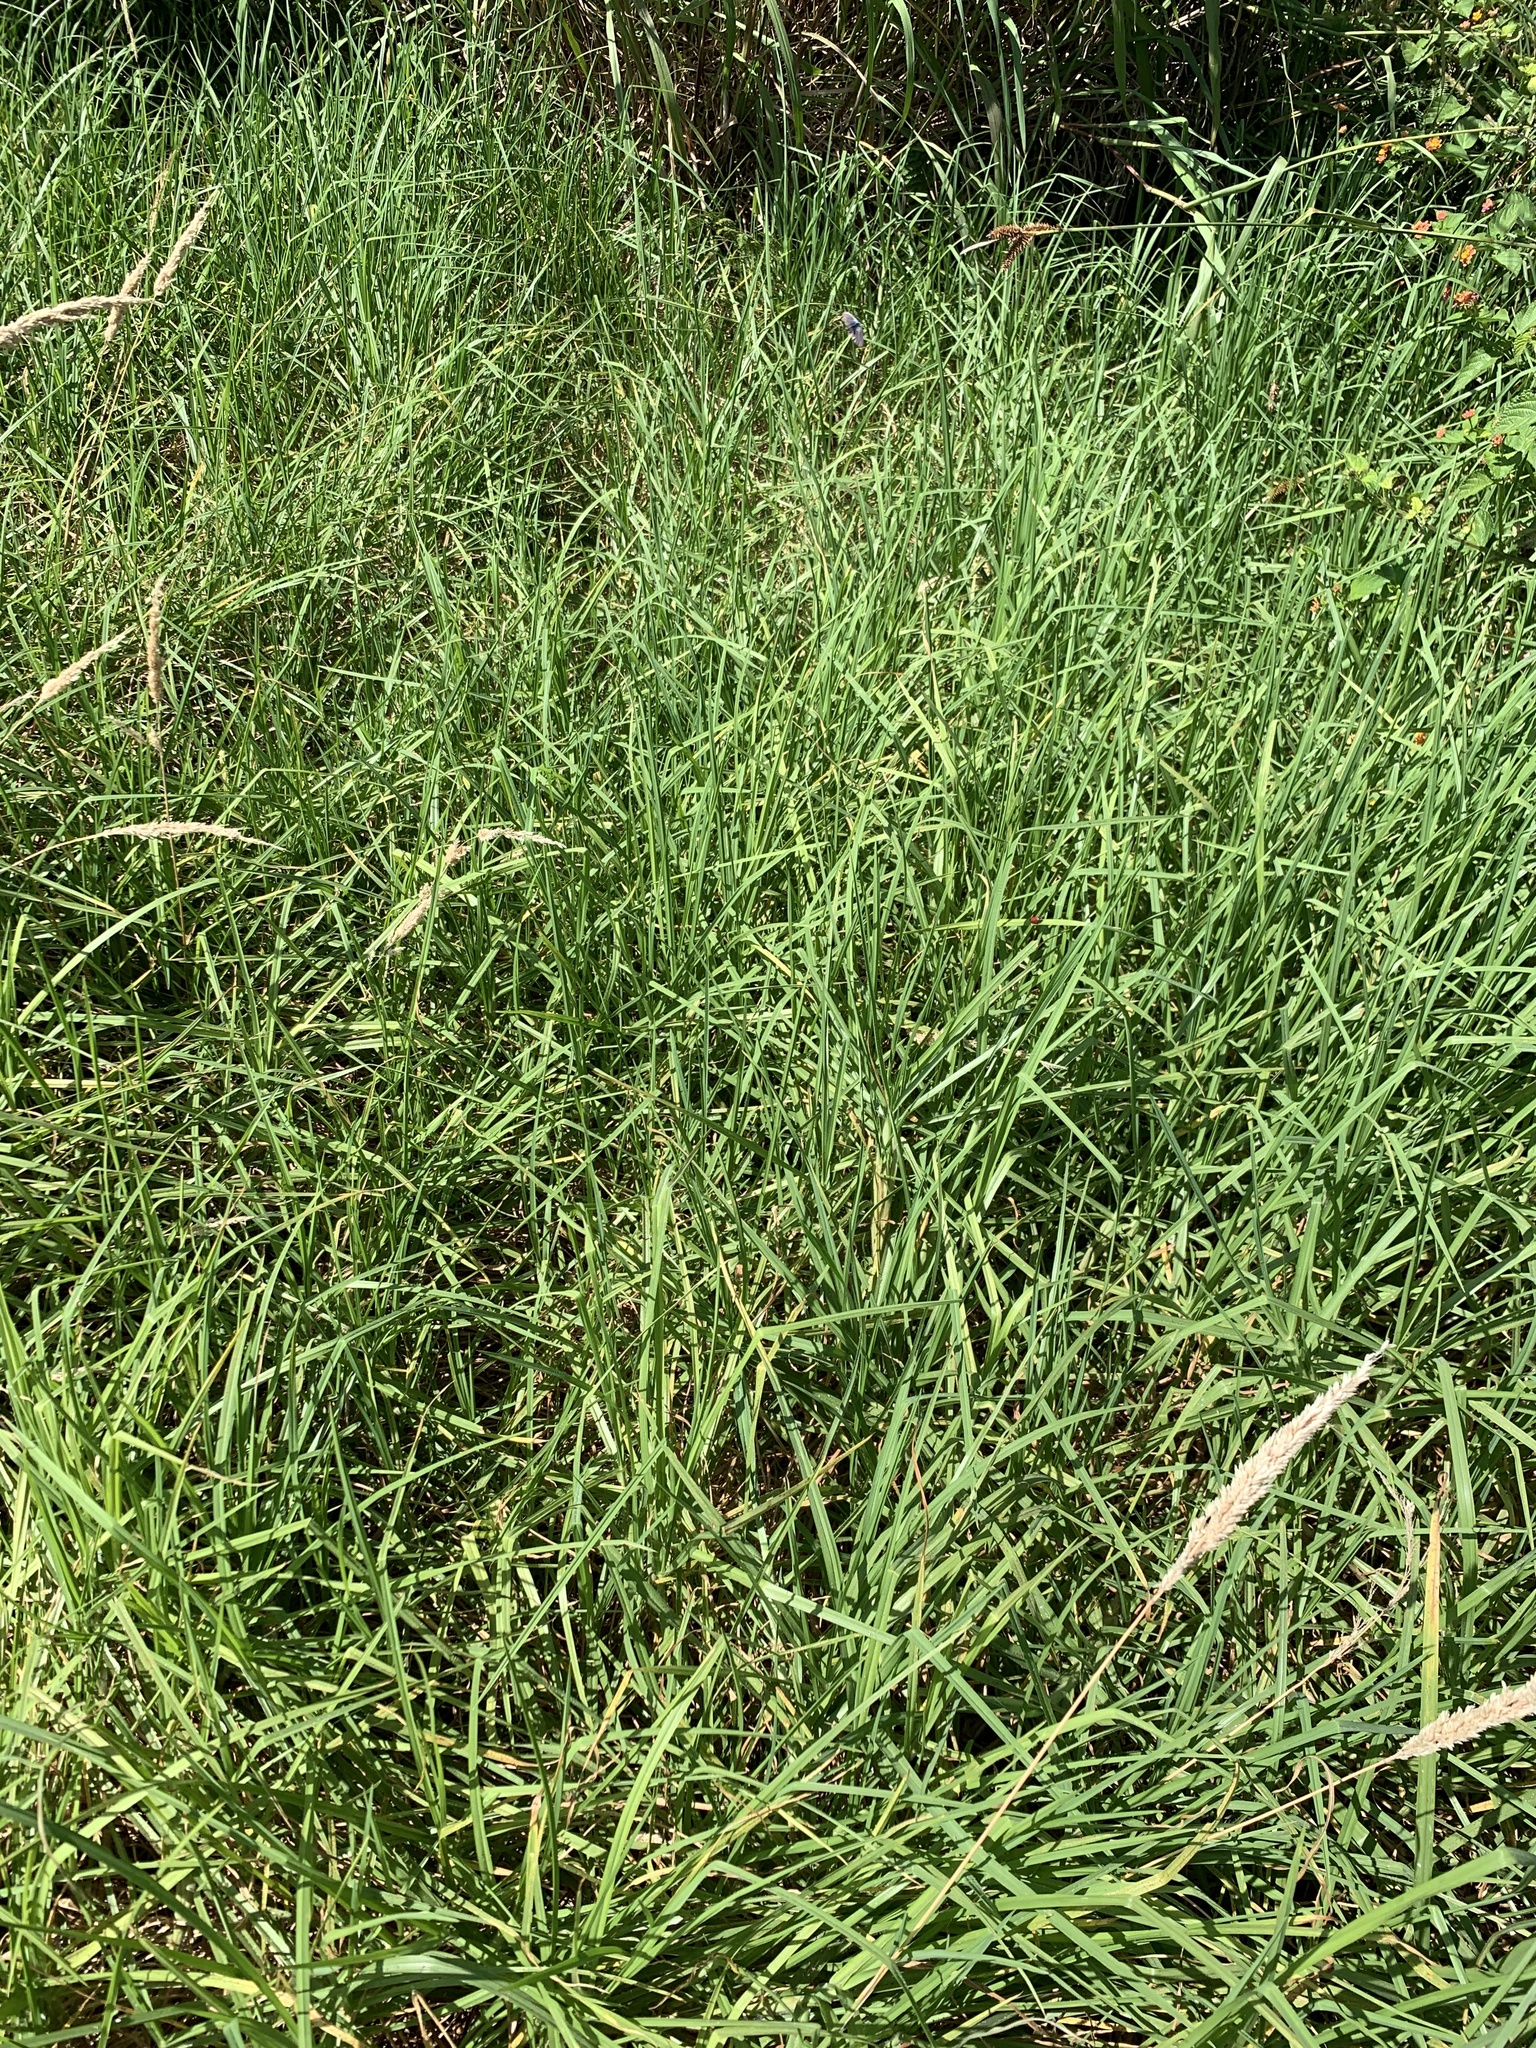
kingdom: Plantae
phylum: Tracheophyta
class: Liliopsida
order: Poales
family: Poaceae
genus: Cenchrus
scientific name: Cenchrus clandestinus
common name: Kikuyugrass
